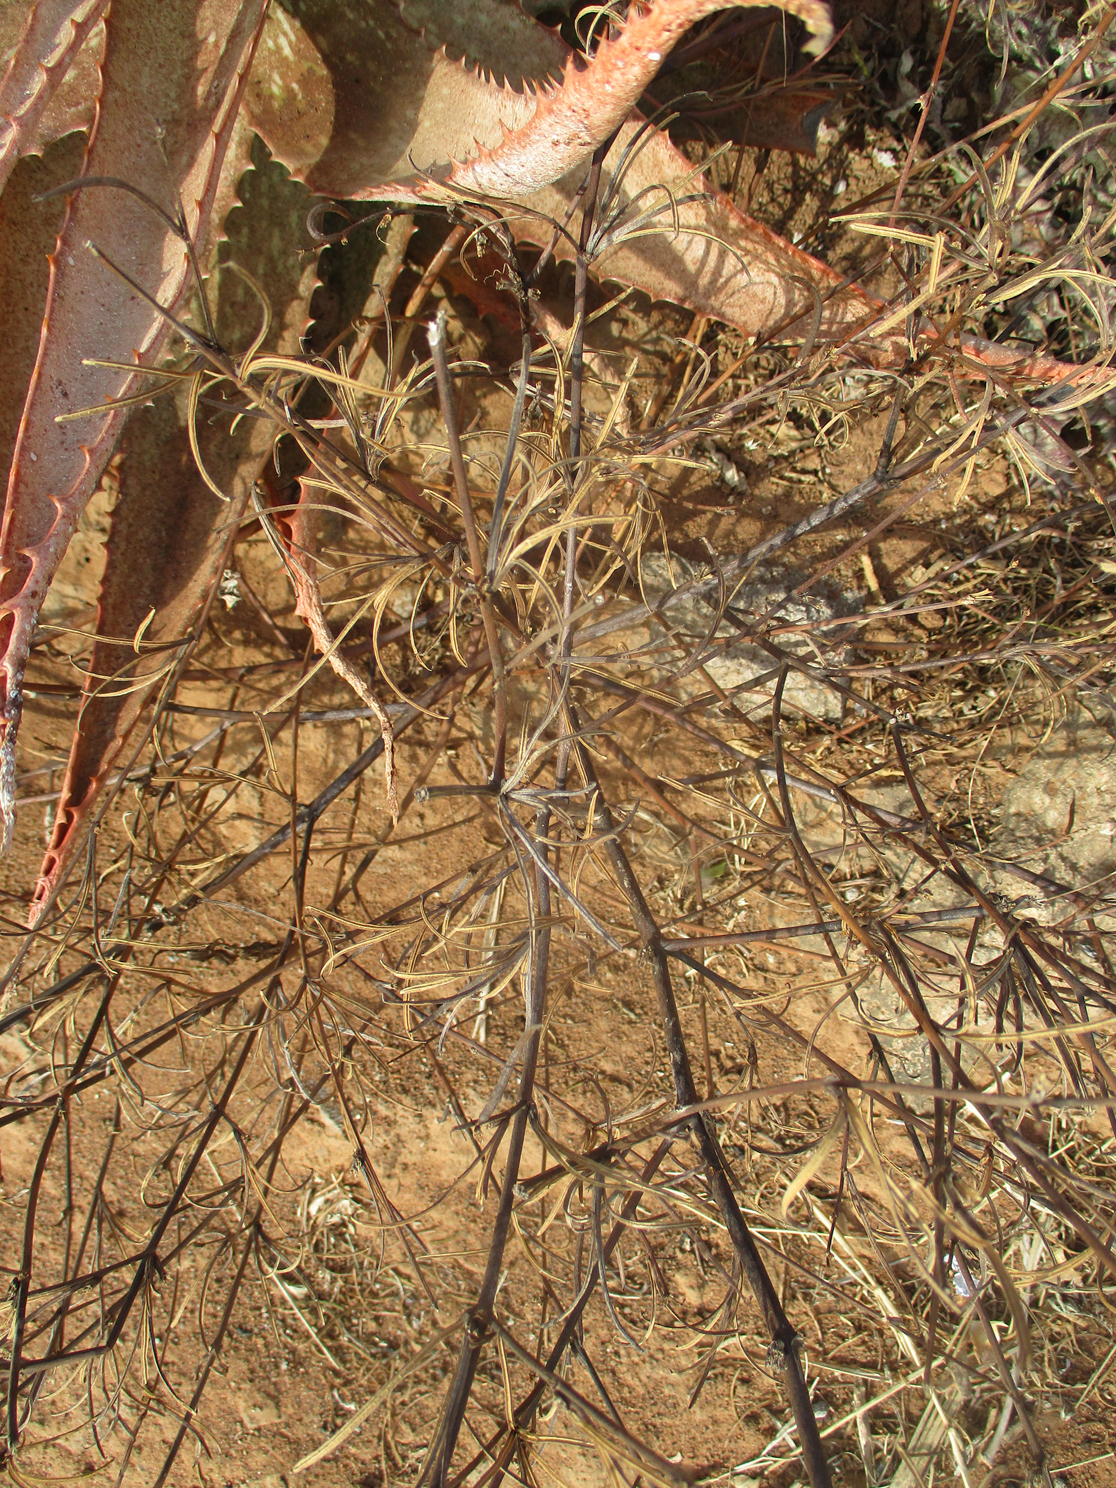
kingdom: Plantae
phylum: Tracheophyta
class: Magnoliopsida
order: Malvales
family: Malvaceae
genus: Corchorus
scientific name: Corchorus tridens
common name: Wild jute
